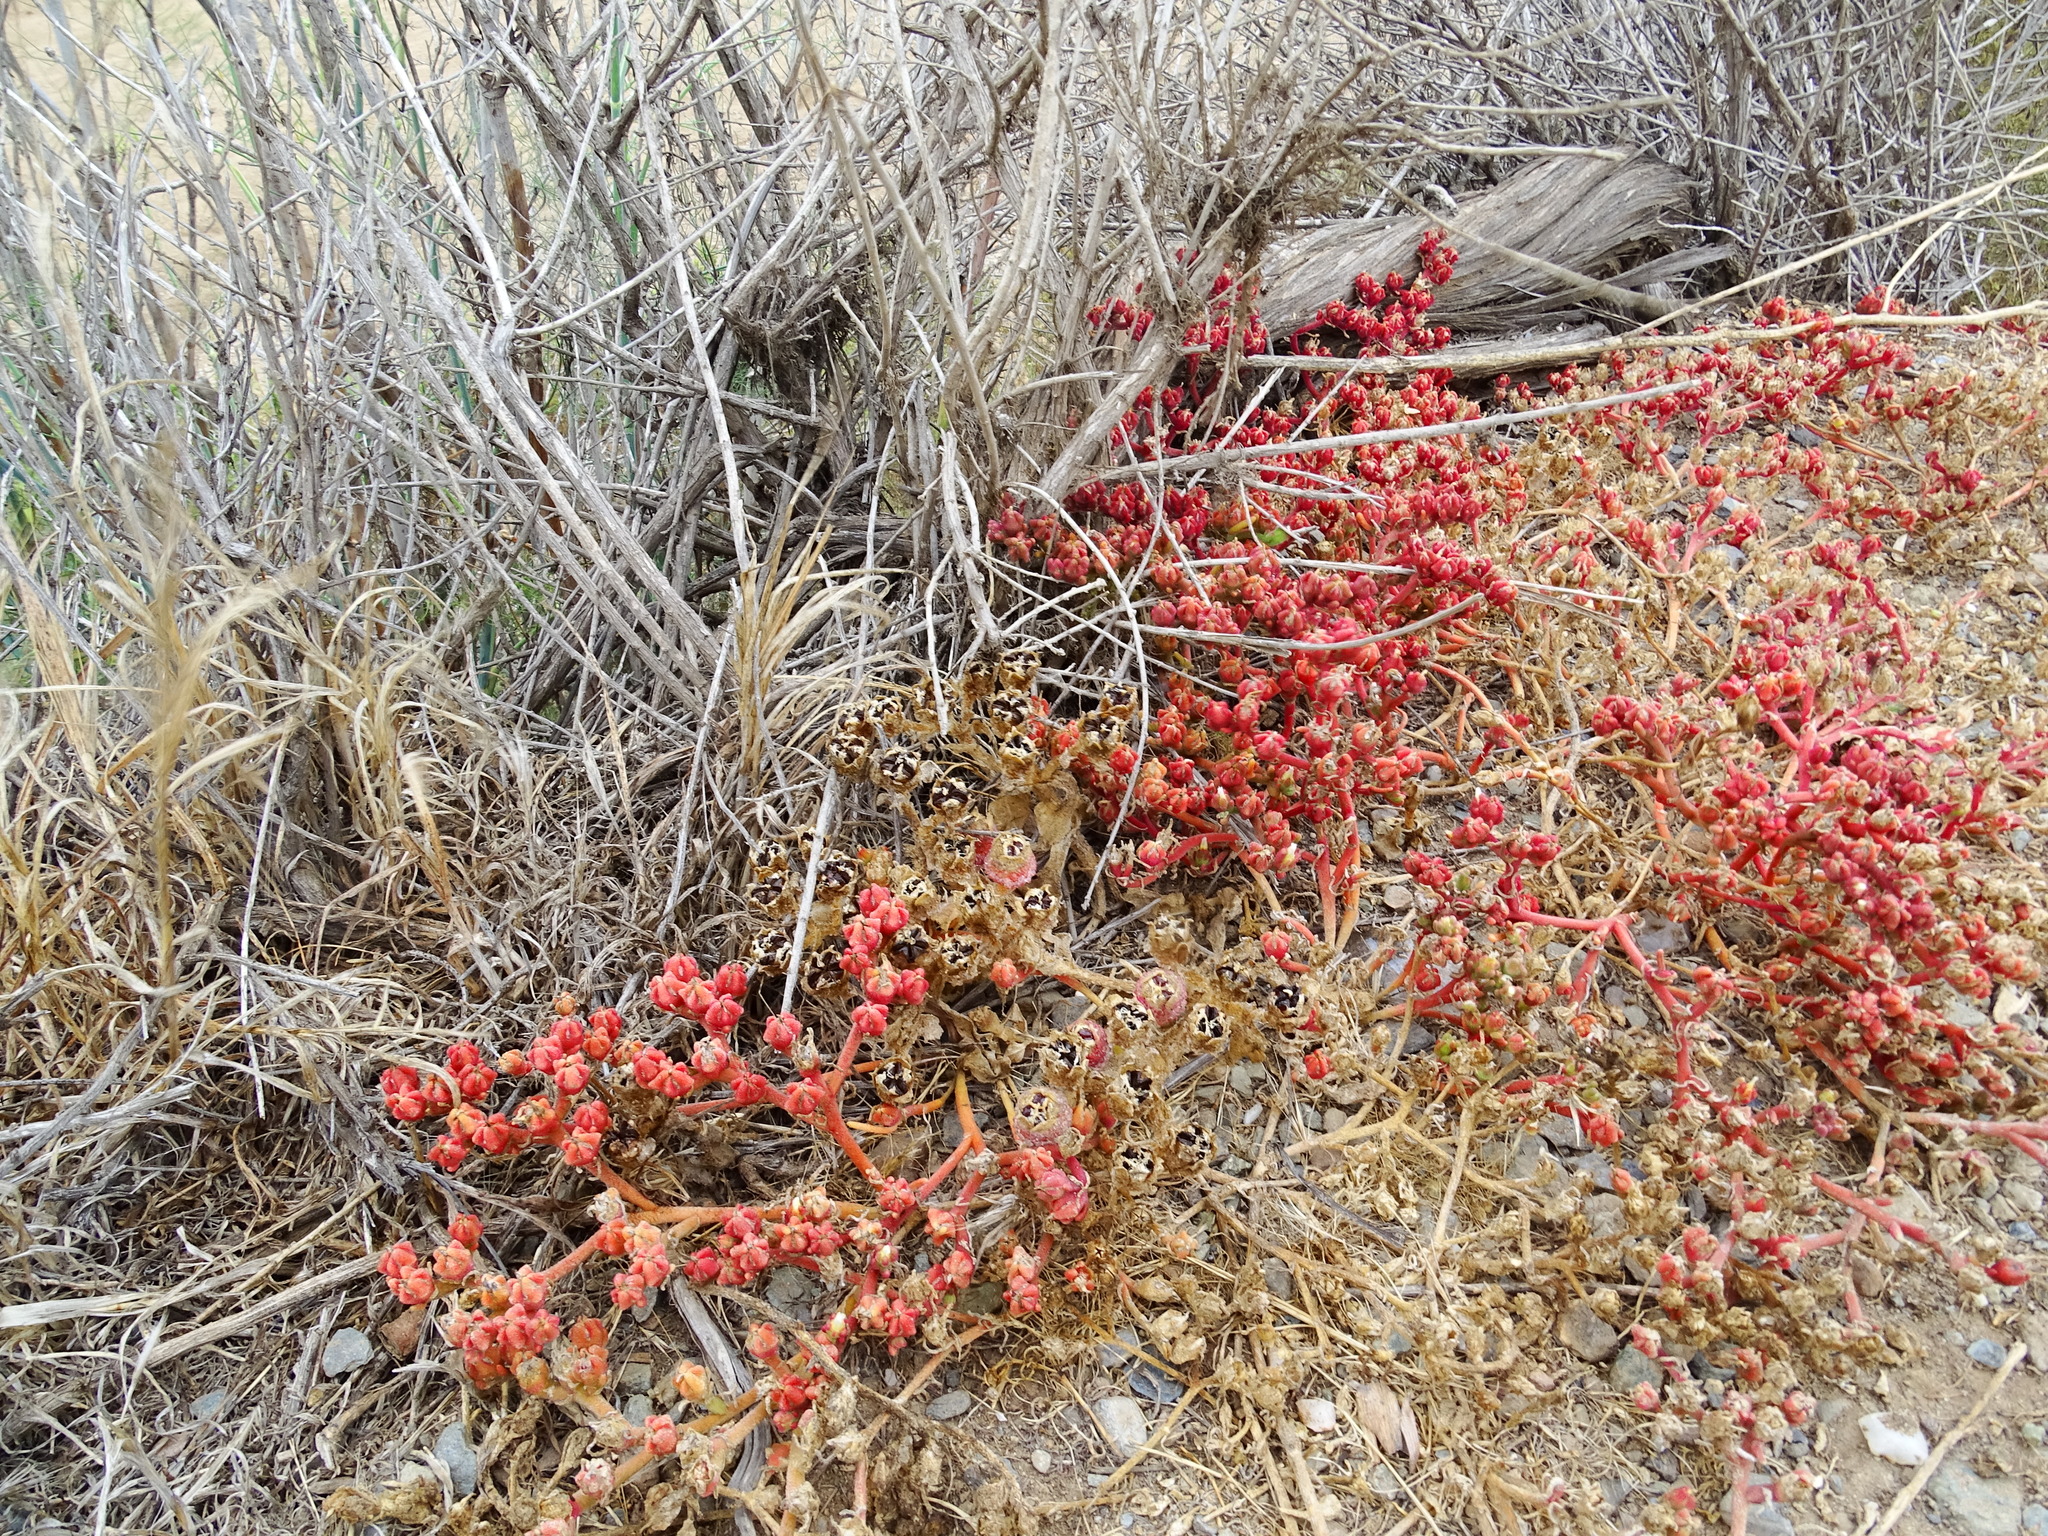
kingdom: Plantae
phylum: Tracheophyta
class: Magnoliopsida
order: Caryophyllales
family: Aizoaceae
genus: Mesembryanthemum
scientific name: Mesembryanthemum nodiflorum
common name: Slenderleaf iceplant
